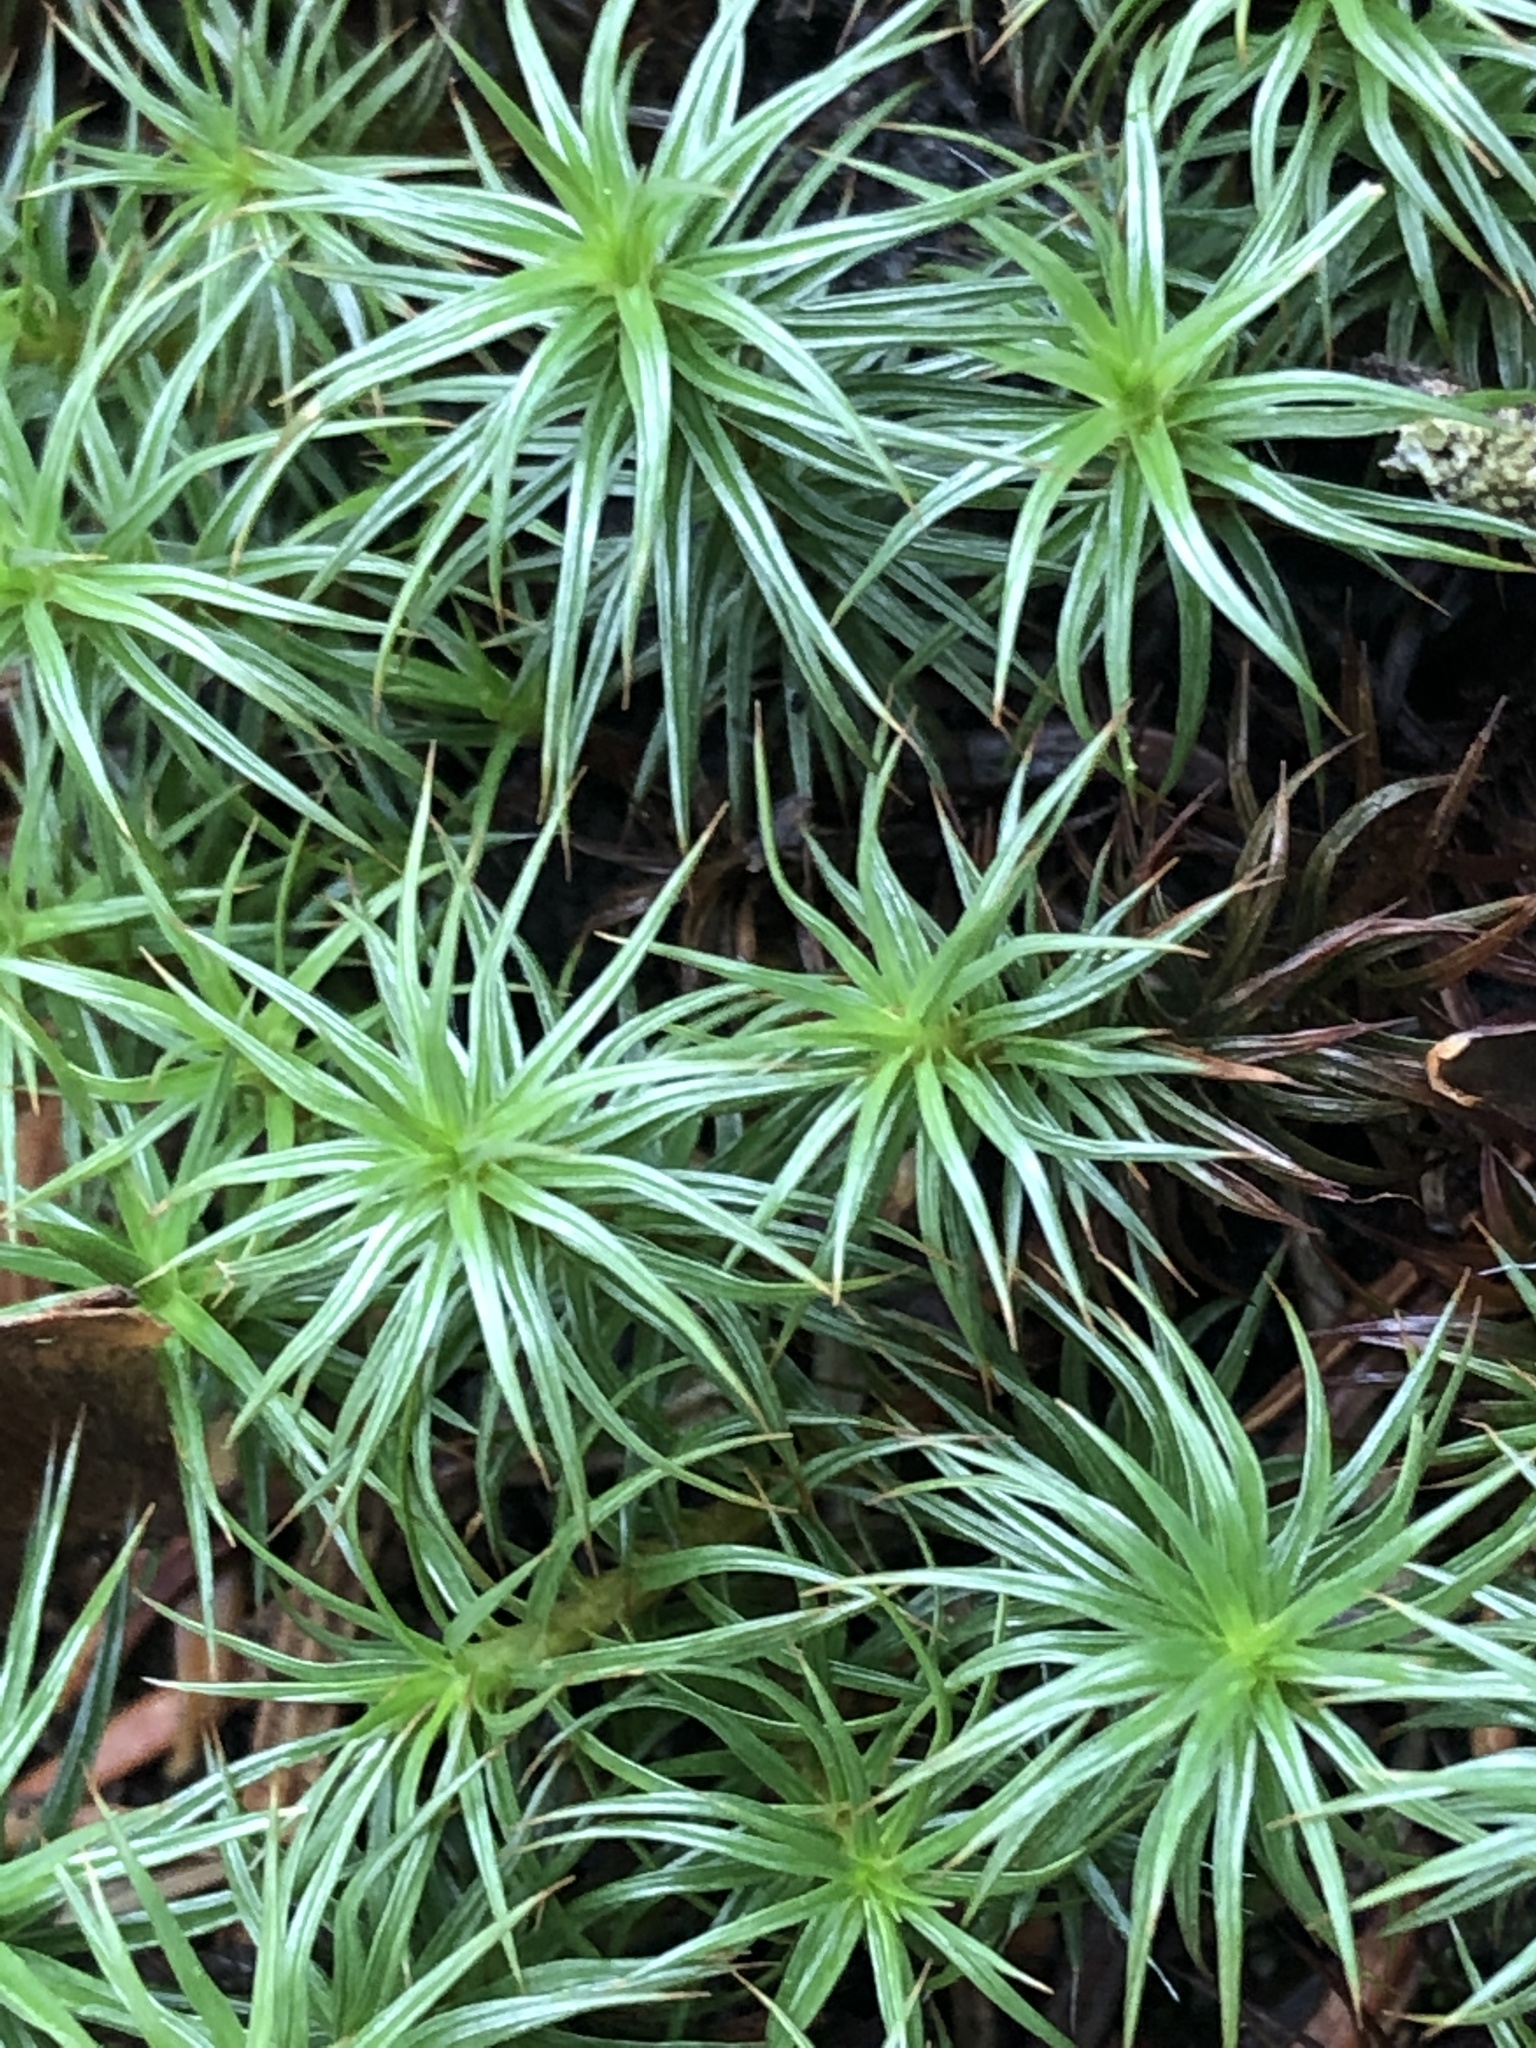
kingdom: Plantae
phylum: Bryophyta
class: Polytrichopsida
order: Polytrichales
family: Polytrichaceae
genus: Polytrichum
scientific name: Polytrichum juniperinum
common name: Juniper haircap moss
